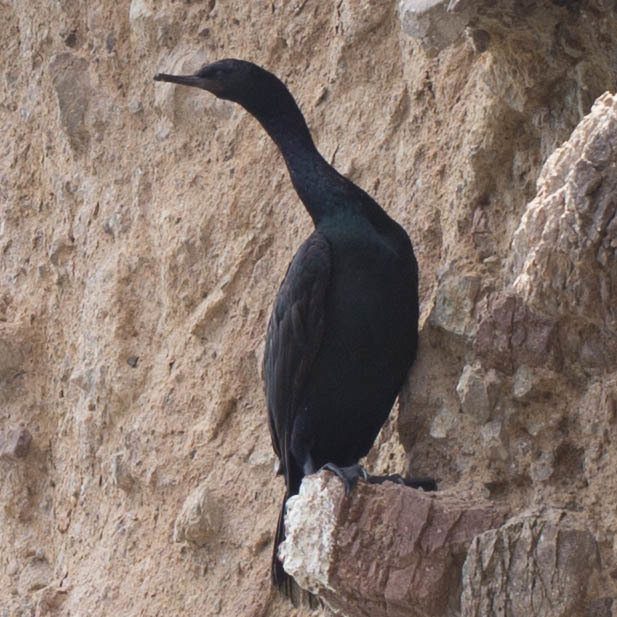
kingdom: Animalia
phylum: Chordata
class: Aves
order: Suliformes
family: Phalacrocoracidae
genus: Phalacrocorax
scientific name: Phalacrocorax pelagicus
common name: Pelagic cormorant
